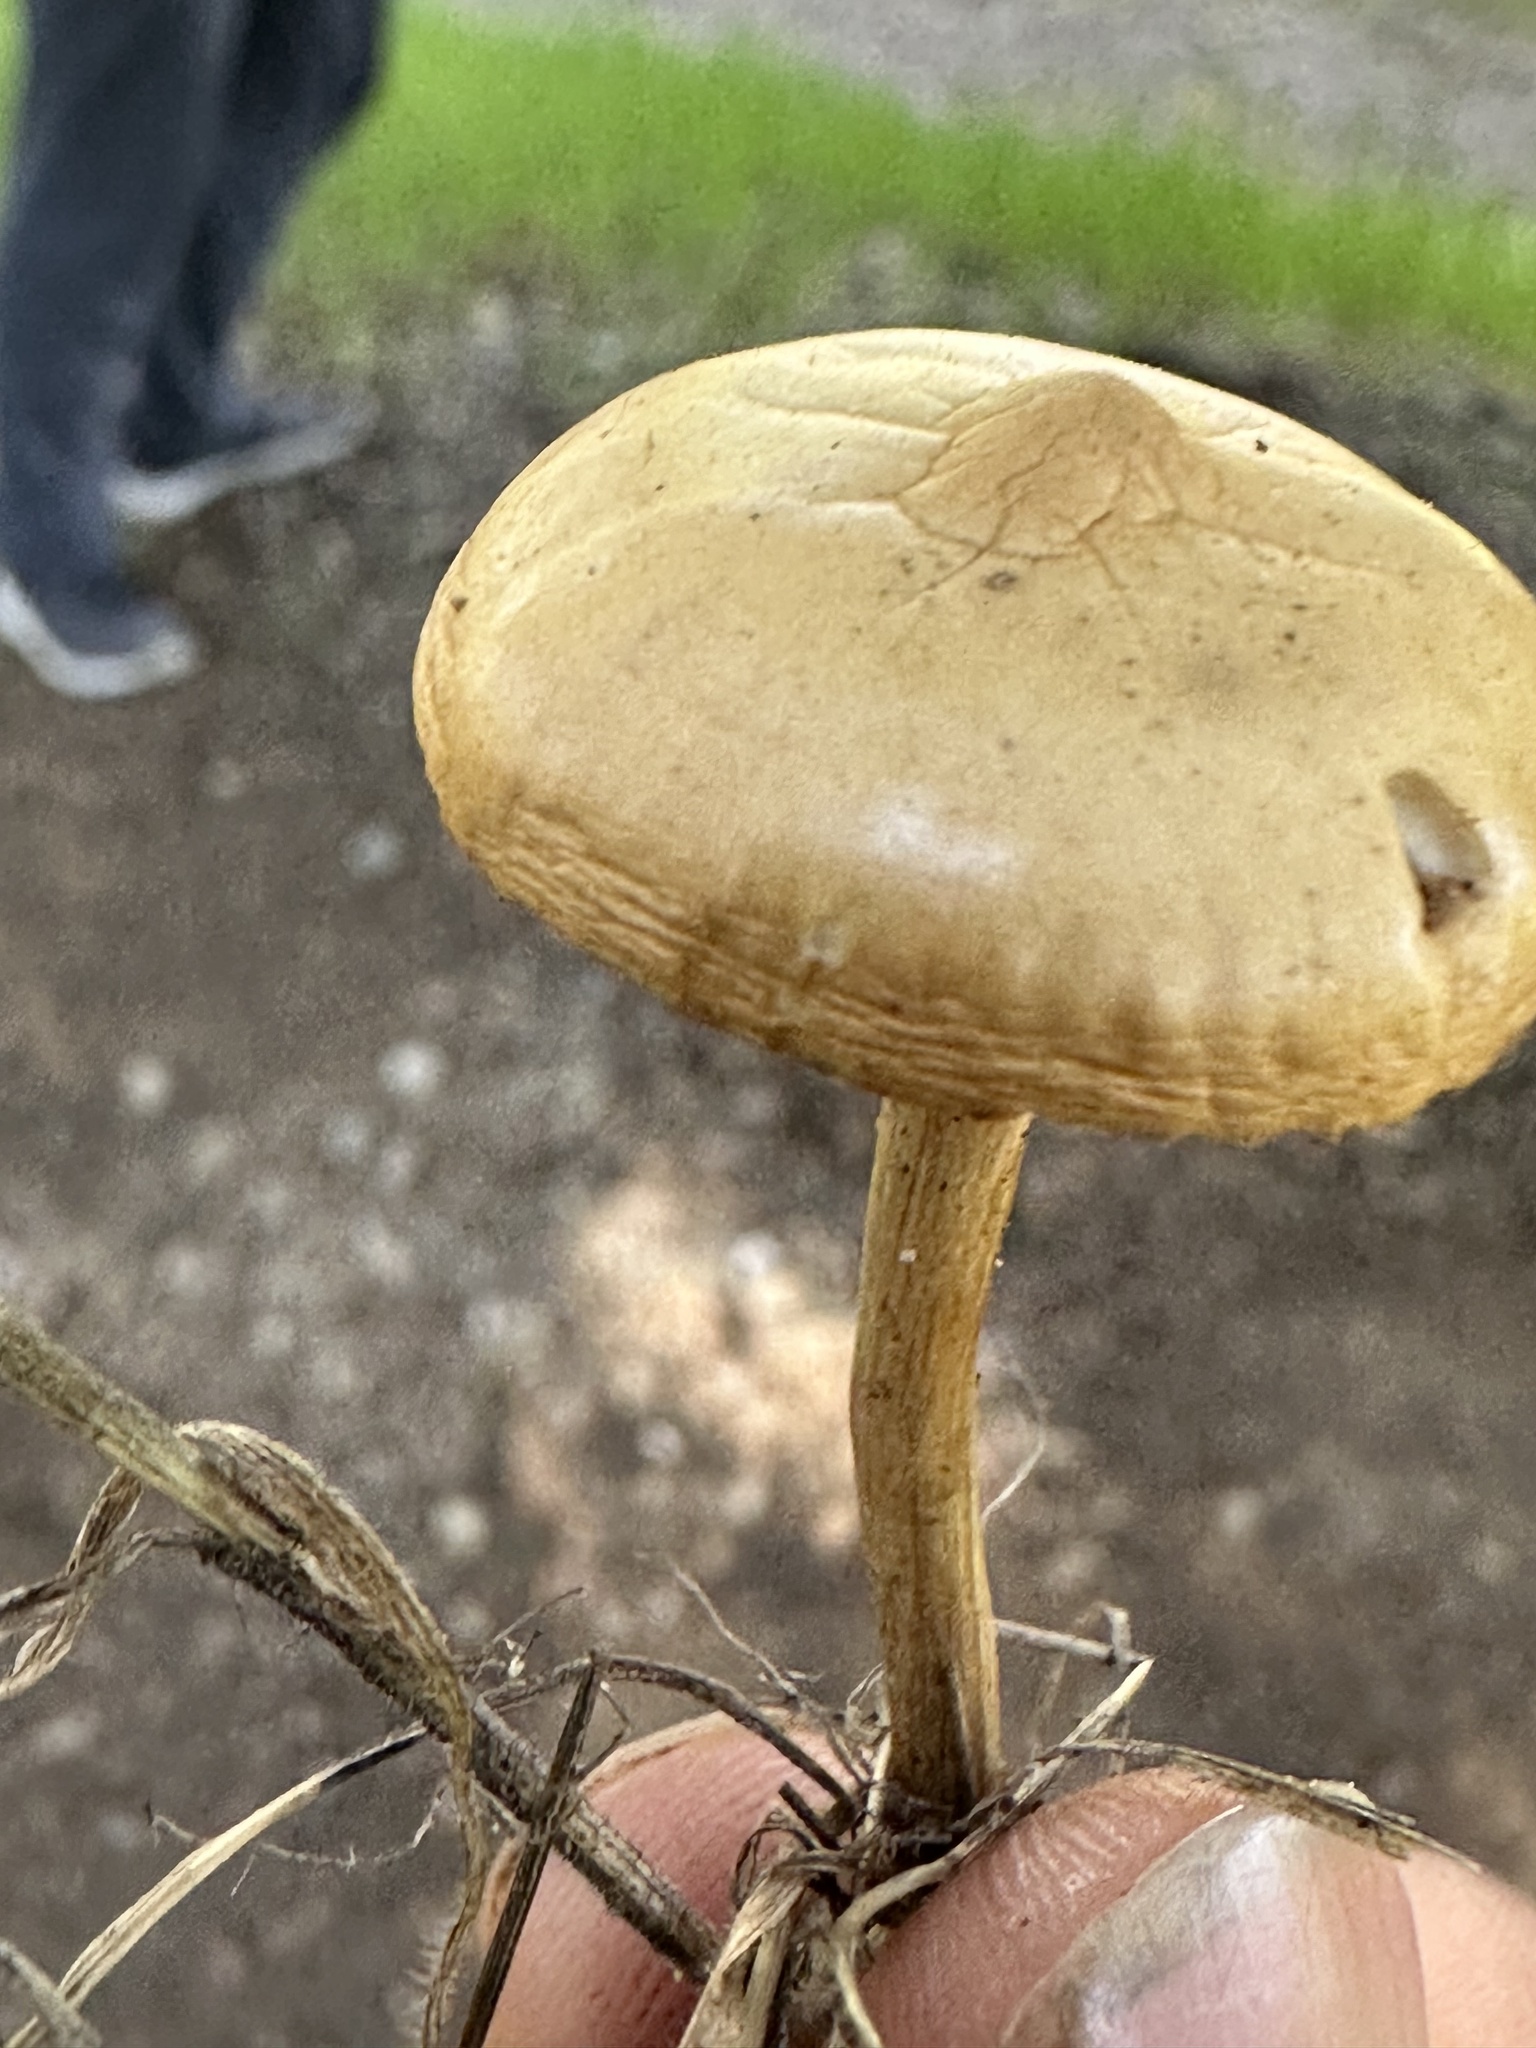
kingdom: Fungi
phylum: Basidiomycota
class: Agaricomycetes
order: Agaricales
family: Strophariaceae
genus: Agrocybe
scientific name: Agrocybe pediades
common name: Common fieldcap
